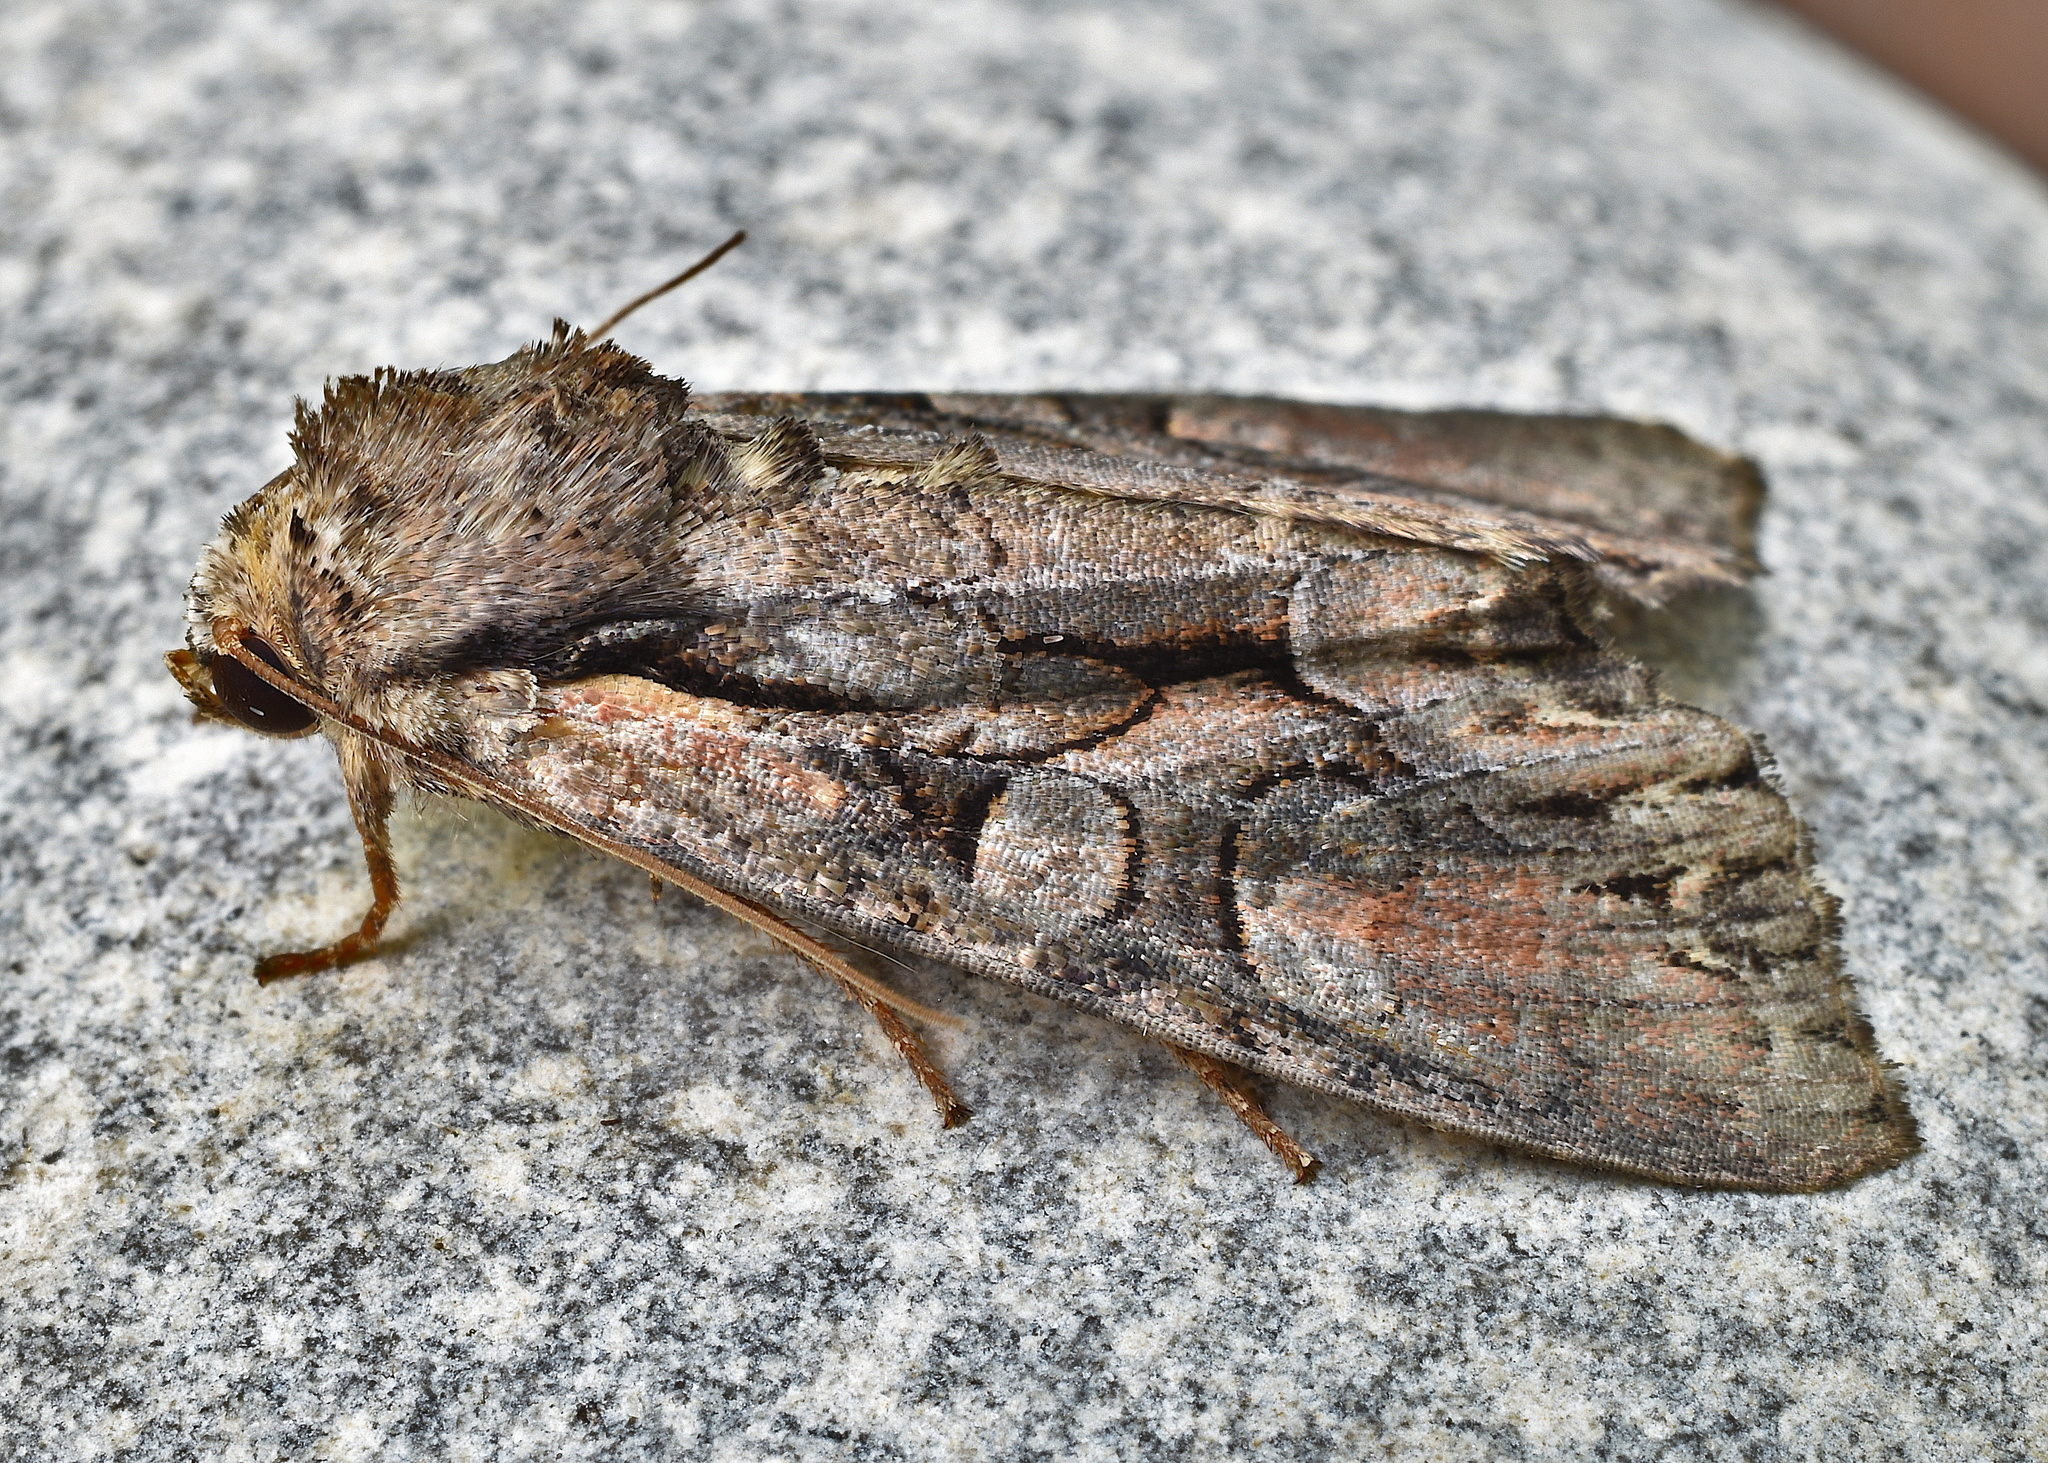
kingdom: Animalia
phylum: Arthropoda
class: Insecta
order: Lepidoptera
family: Noctuidae
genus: Lacanobia
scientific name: Lacanobia subjuncta
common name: Speckled cutworm moth
